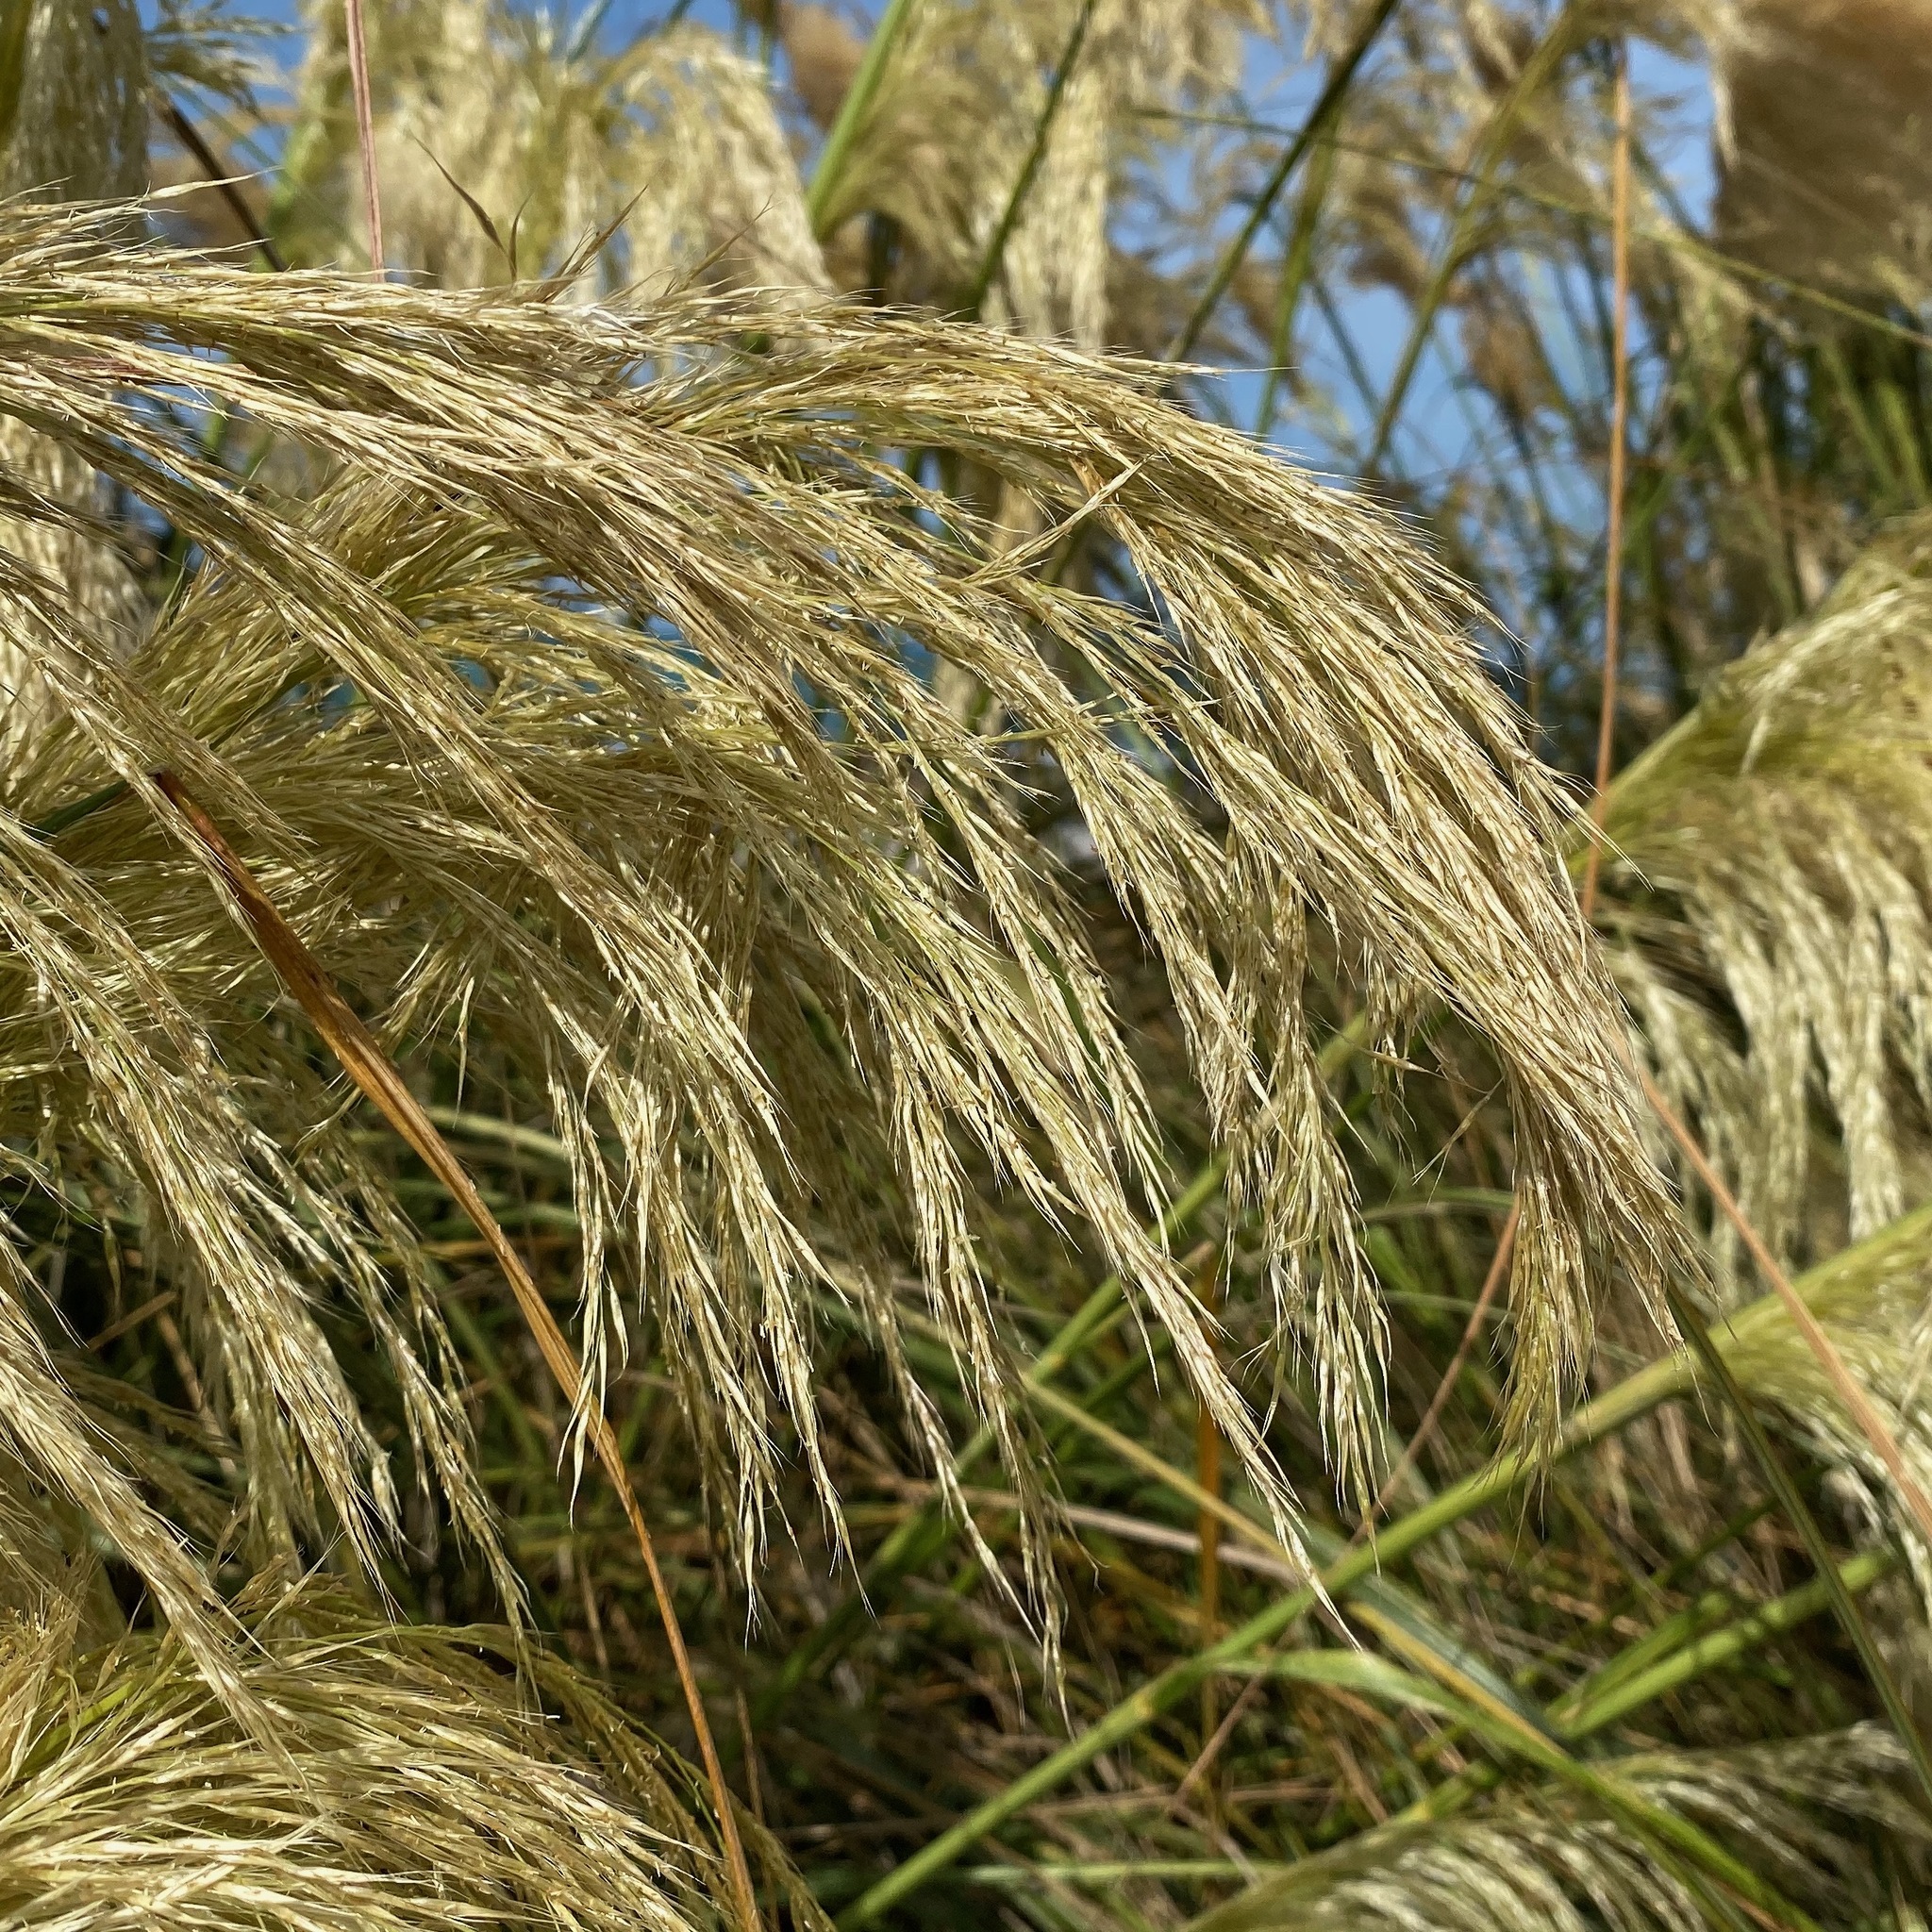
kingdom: Plantae
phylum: Tracheophyta
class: Liliopsida
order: Poales
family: Poaceae
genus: Austroderia
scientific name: Austroderia richardii
